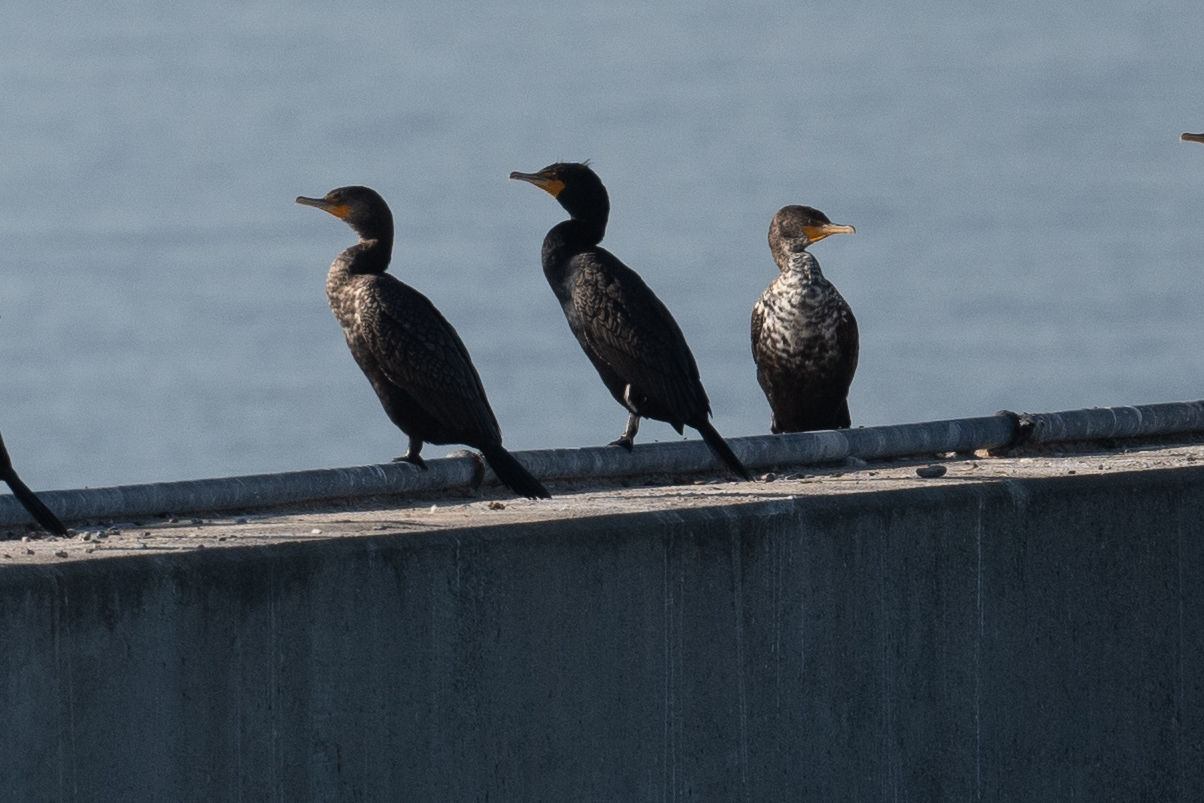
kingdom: Animalia
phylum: Chordata
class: Aves
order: Suliformes
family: Phalacrocoracidae
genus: Phalacrocorax
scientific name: Phalacrocorax auritus
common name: Double-crested cormorant
